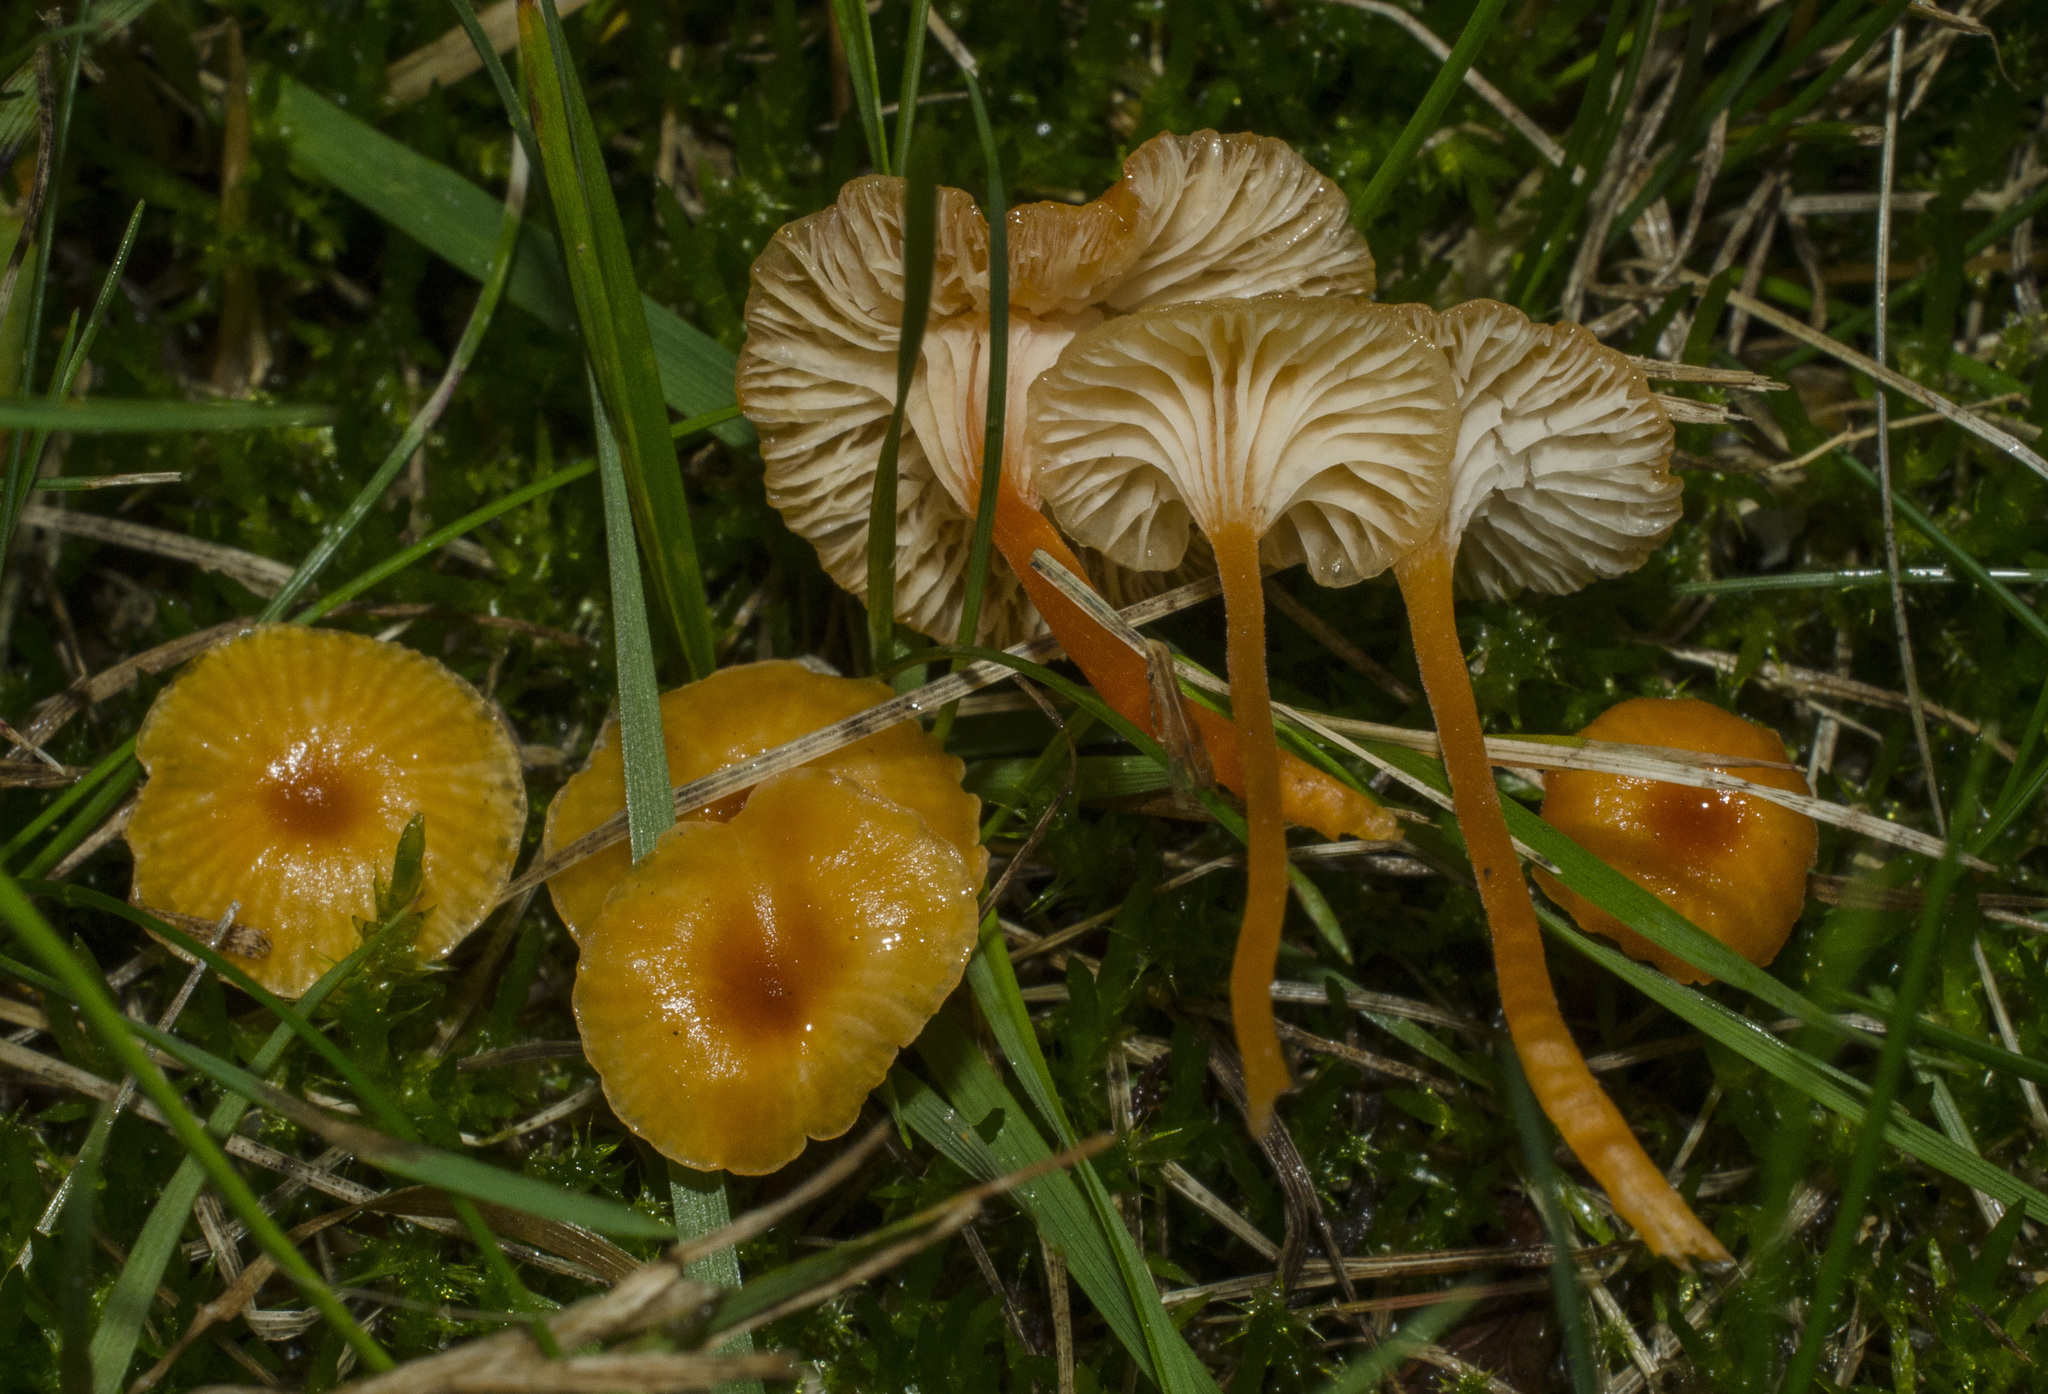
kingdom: Fungi
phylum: Basidiomycota
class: Agaricomycetes
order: Hymenochaetales
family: Rickenellaceae
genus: Rickenella
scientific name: Rickenella fibula
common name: Orange mosscap
